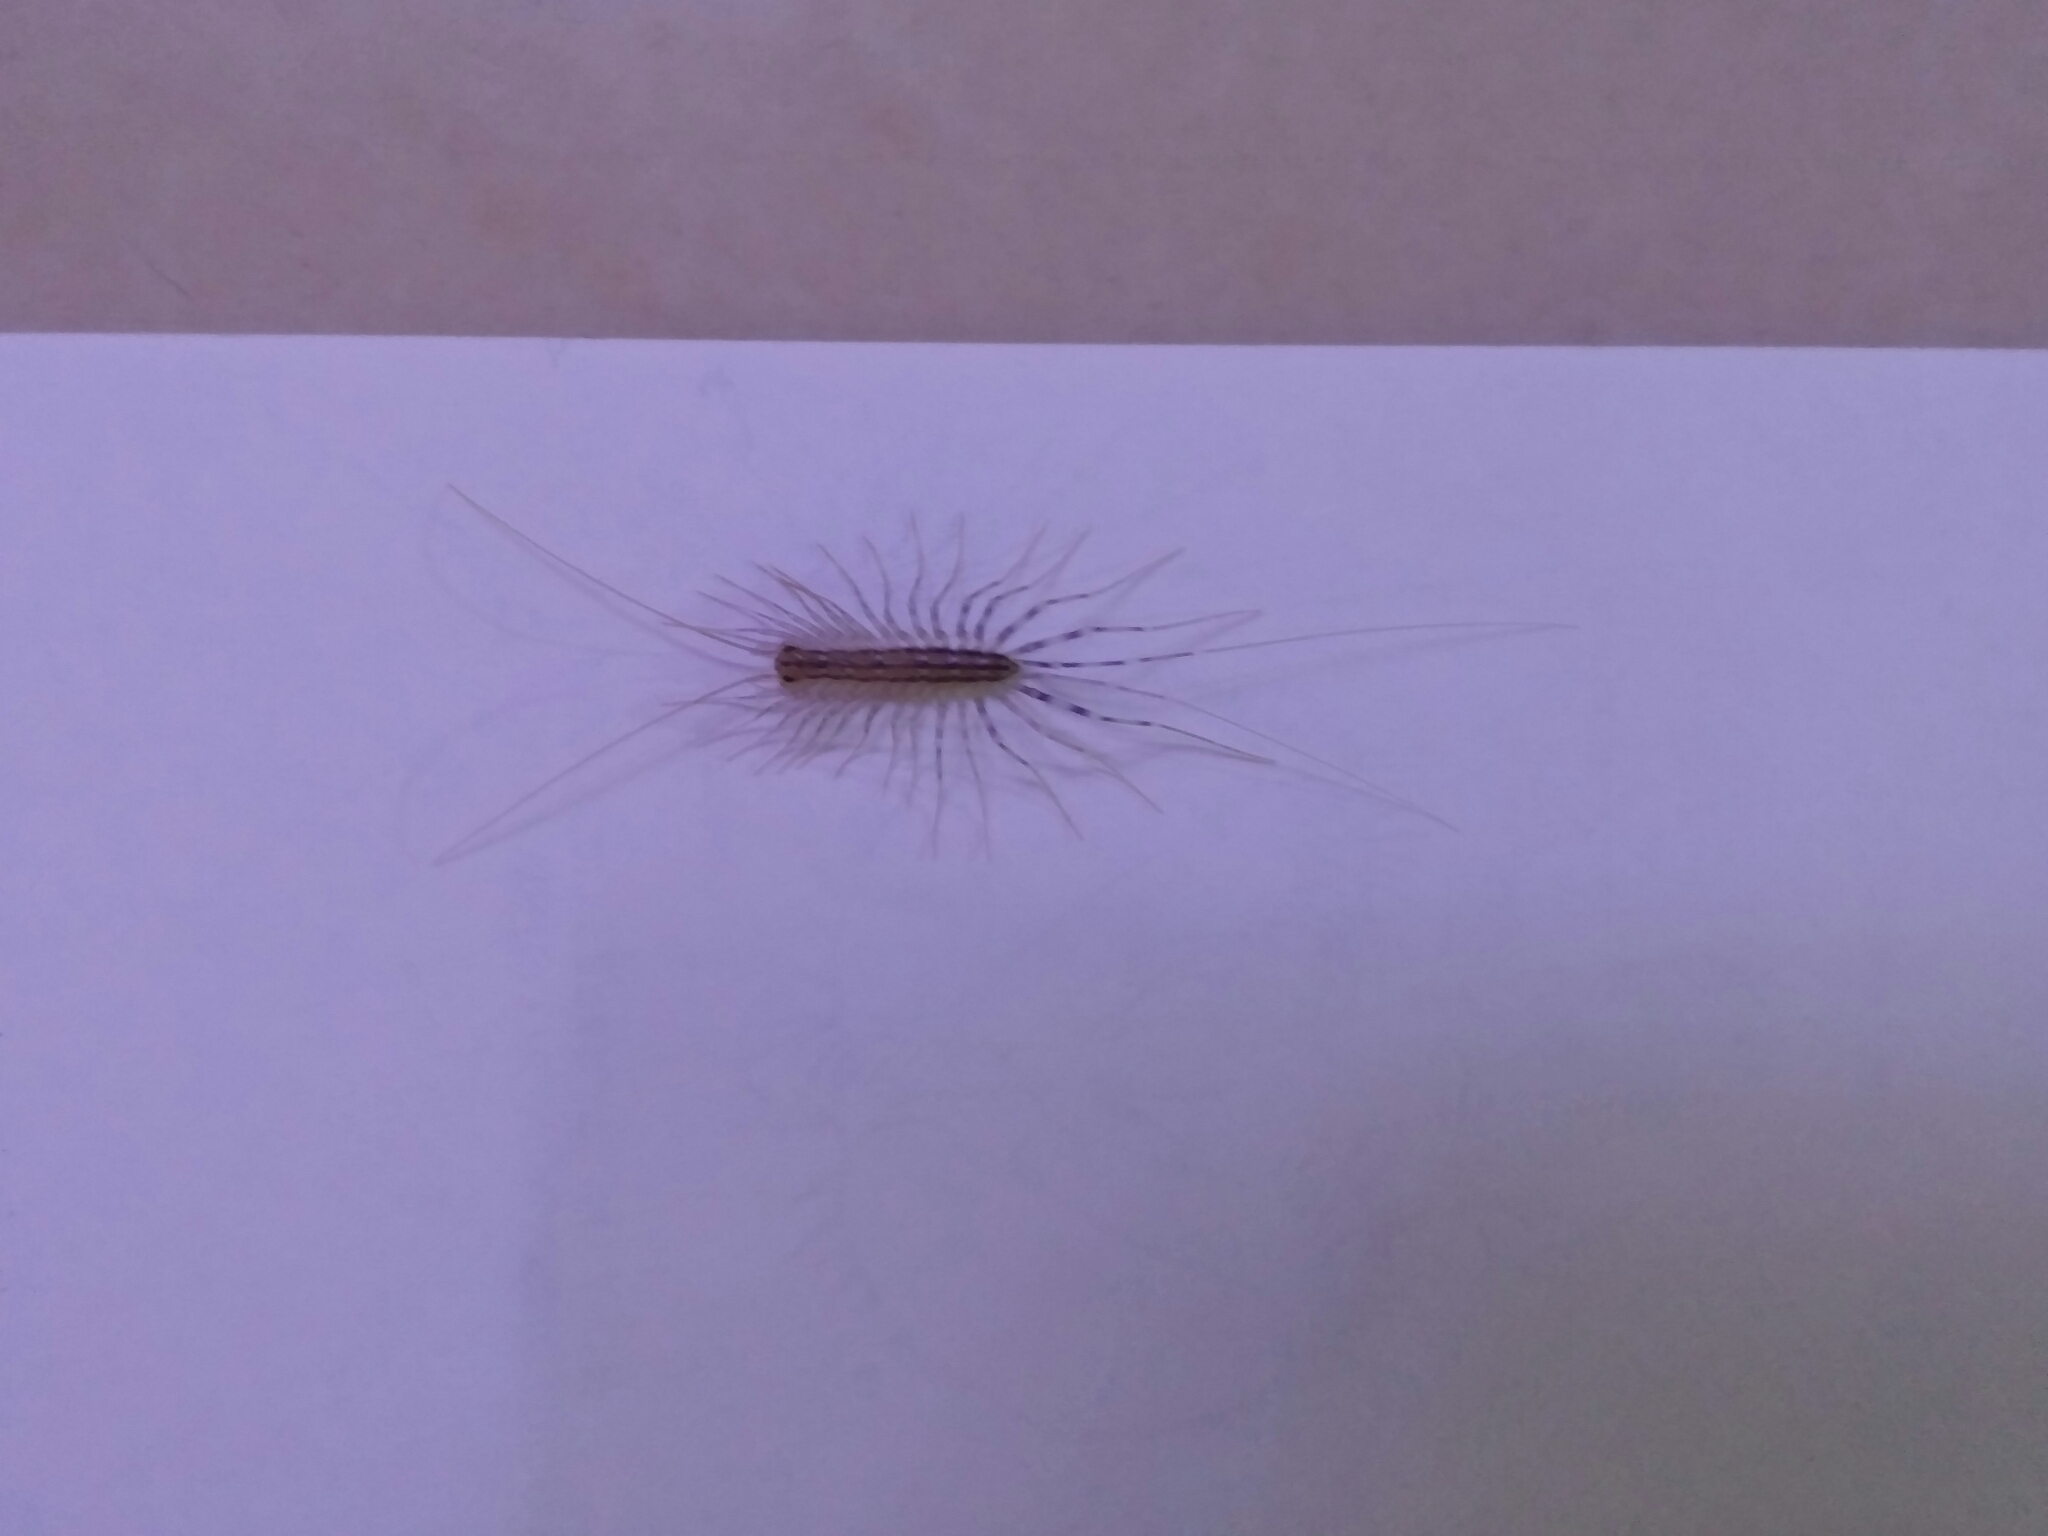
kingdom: Animalia
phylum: Arthropoda
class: Chilopoda
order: Scutigeromorpha
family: Scutigeridae
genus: Scutigera
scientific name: Scutigera coleoptrata
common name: House centipede
